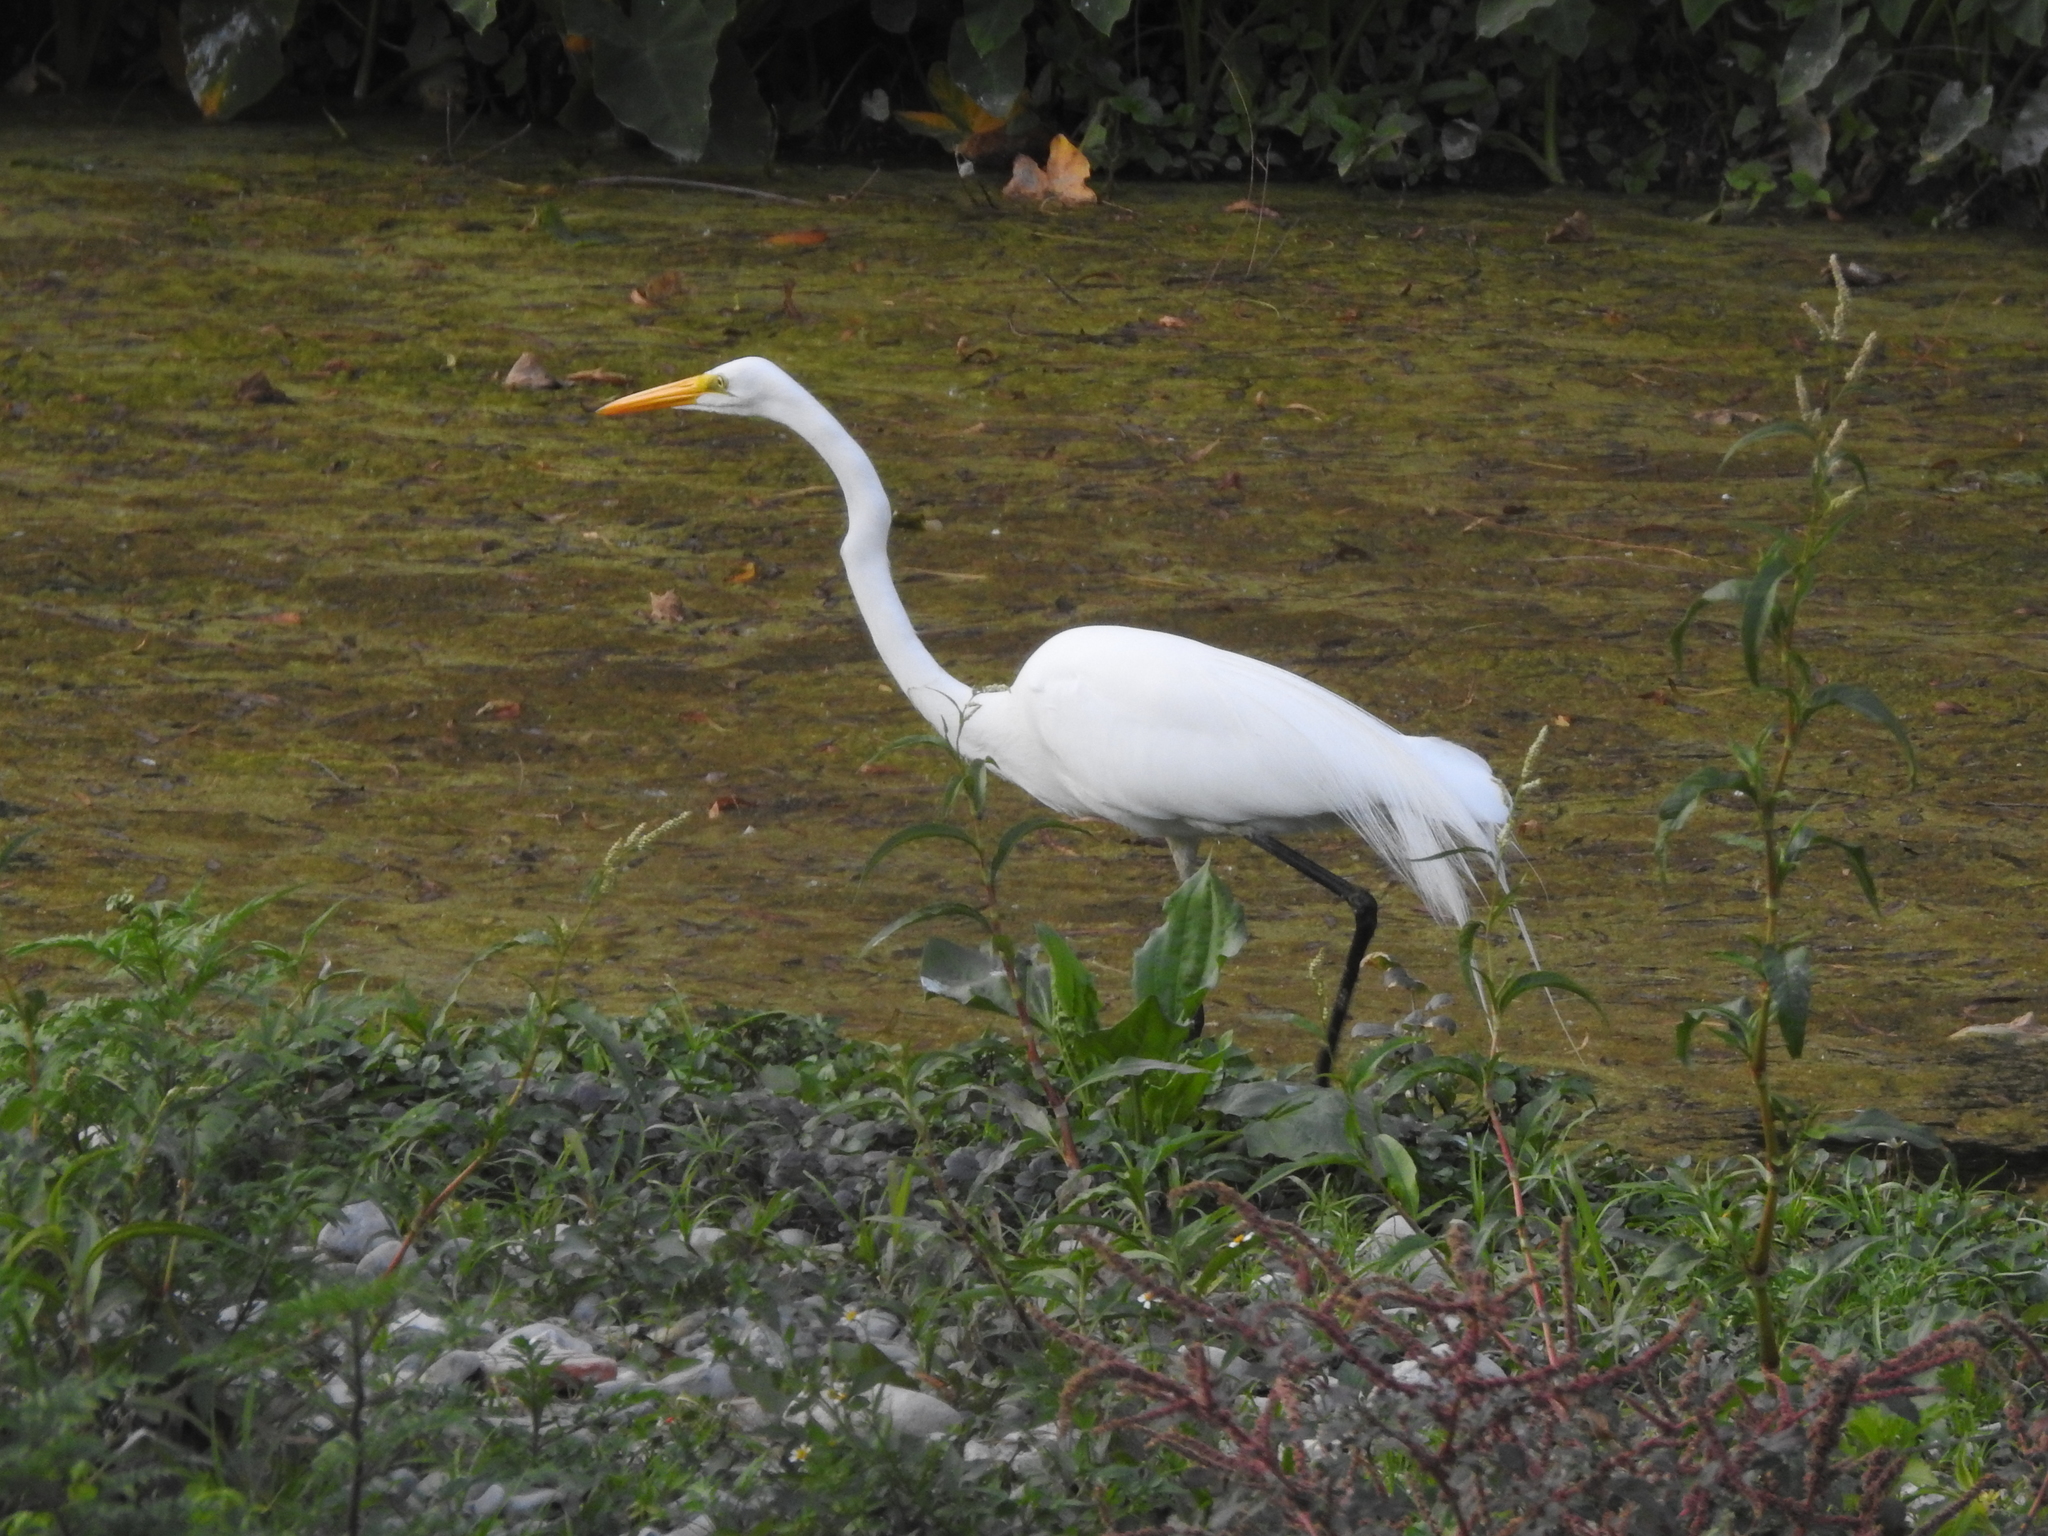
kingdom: Animalia
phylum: Chordata
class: Aves
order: Pelecaniformes
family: Ardeidae
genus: Ardea
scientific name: Ardea alba
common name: Great egret
